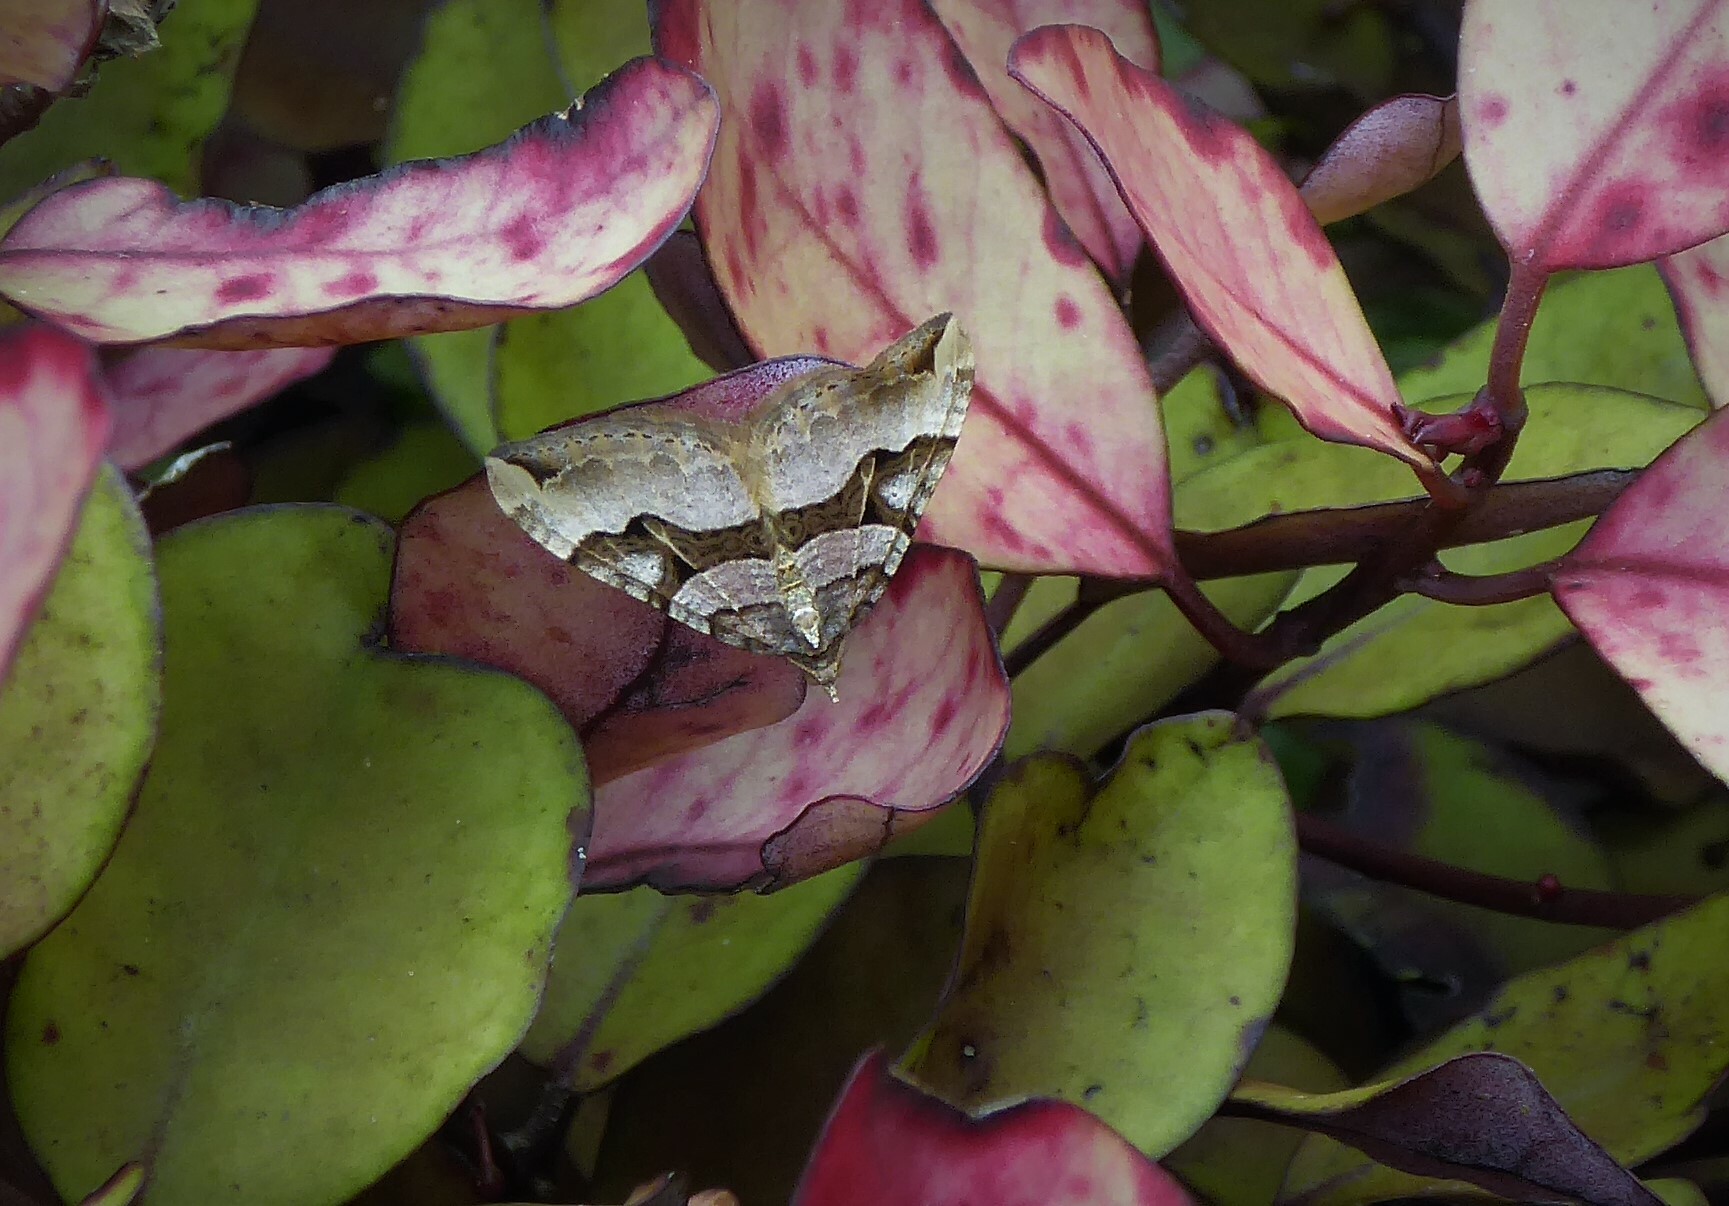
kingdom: Animalia
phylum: Arthropoda
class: Insecta
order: Lepidoptera
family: Geometridae
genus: Xanthorhoe
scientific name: Xanthorhoe semifissata
